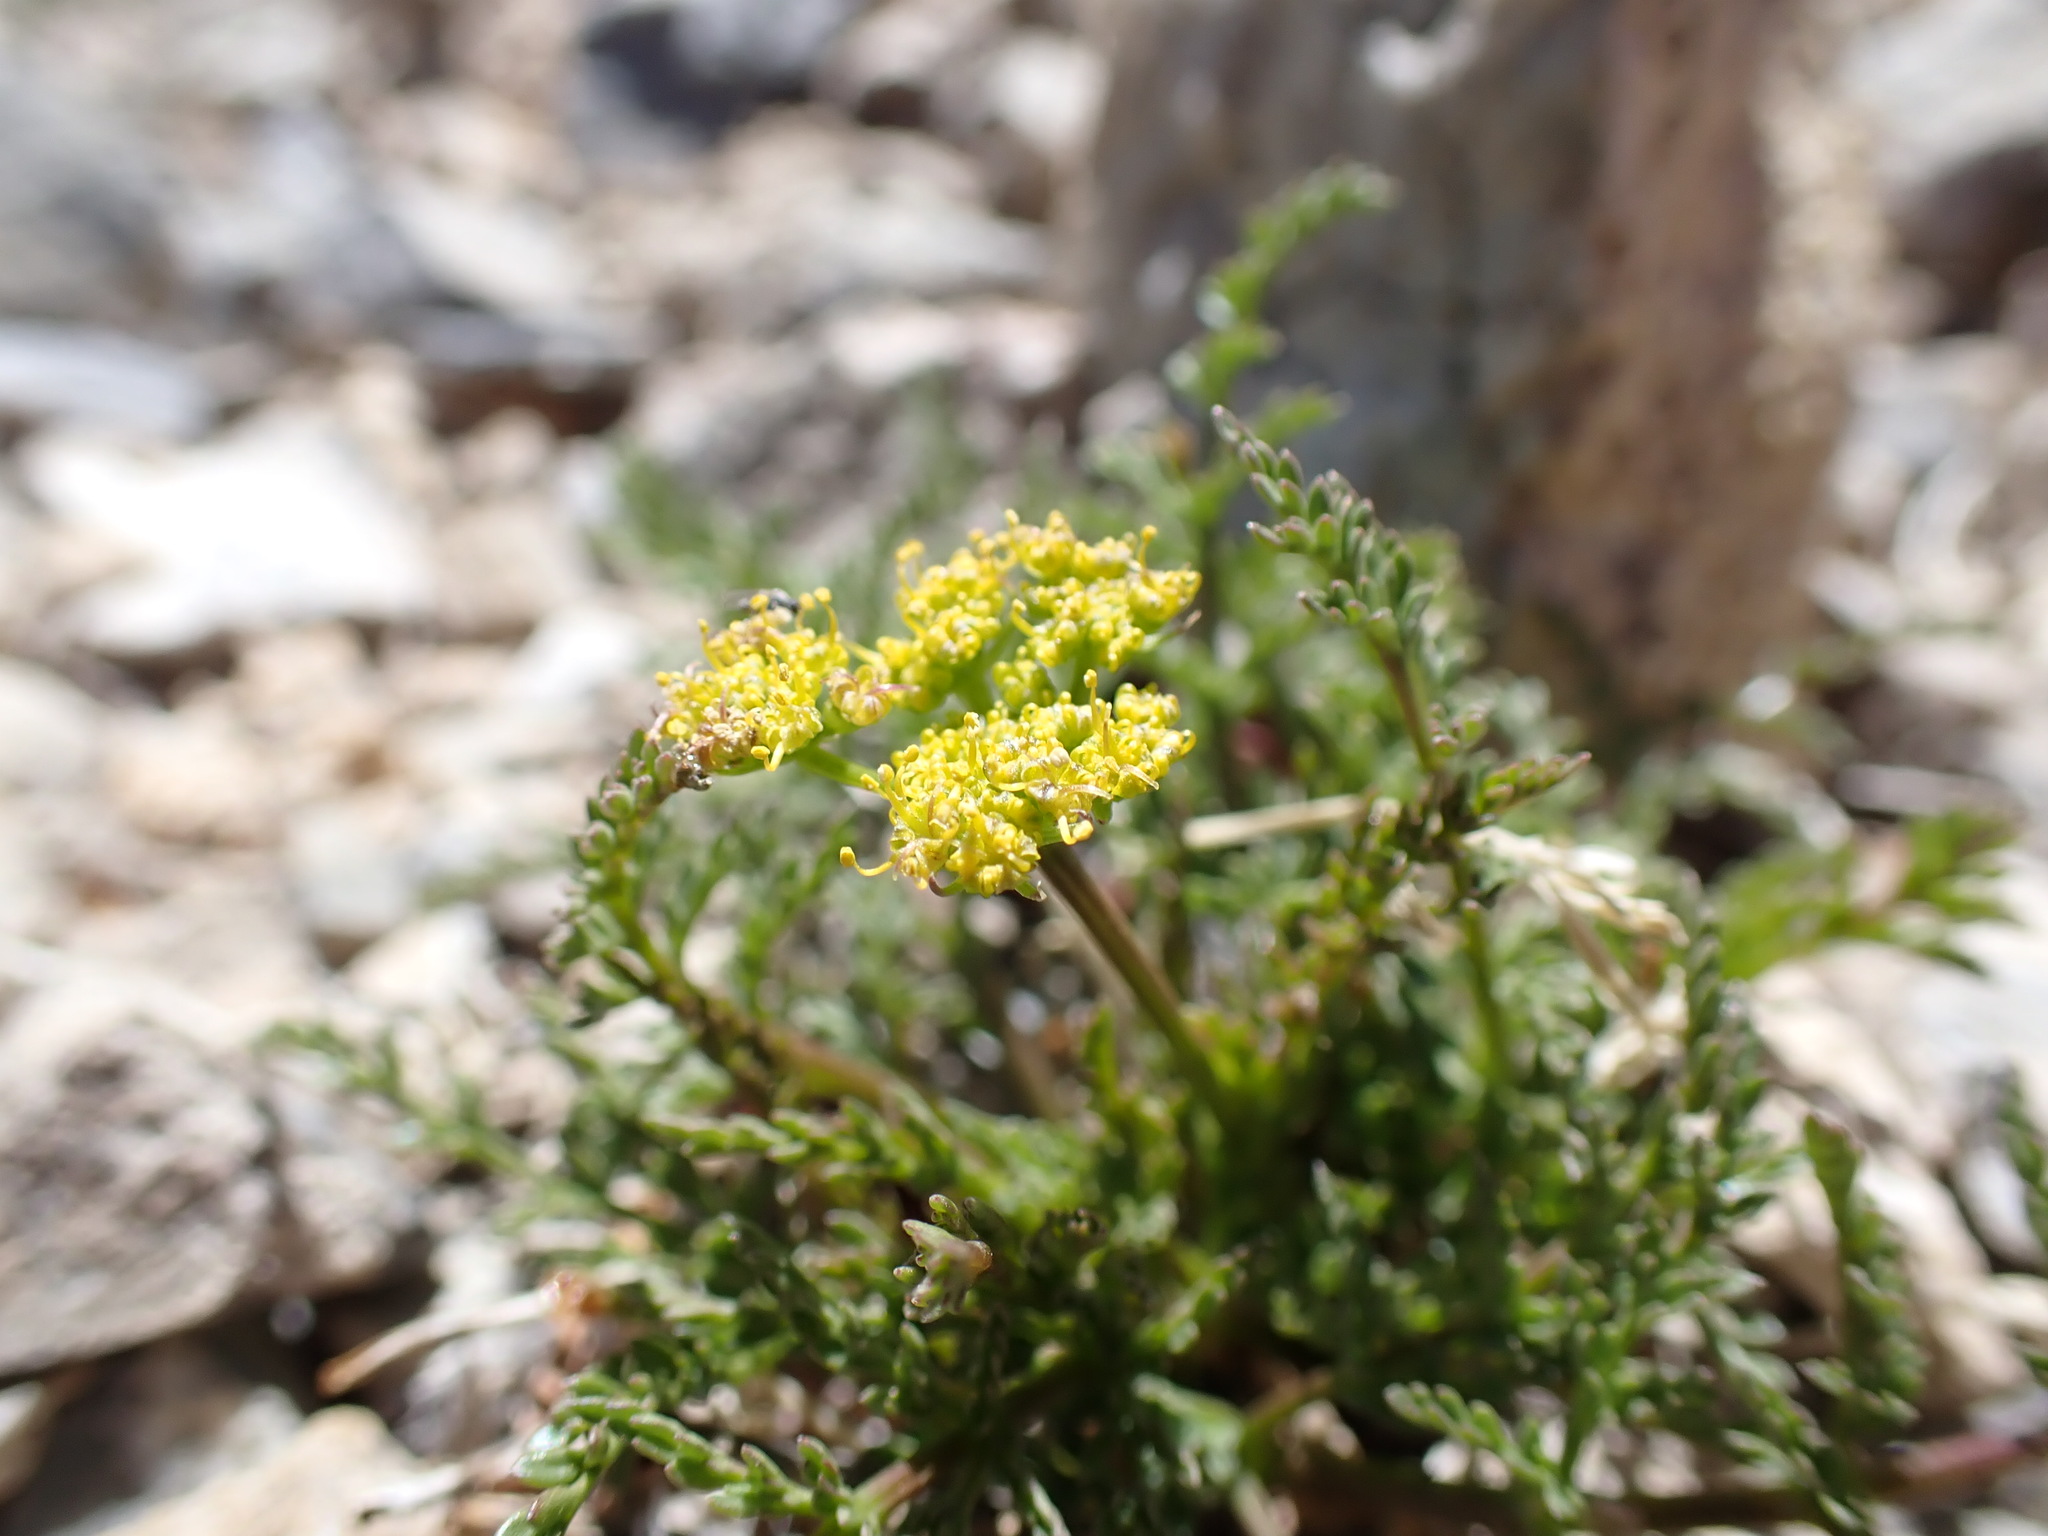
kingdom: Plantae
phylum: Tracheophyta
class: Magnoliopsida
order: Apiales
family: Apiaceae
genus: Pteryxia
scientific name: Pteryxia terebinthina
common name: Turpentine wavewing
